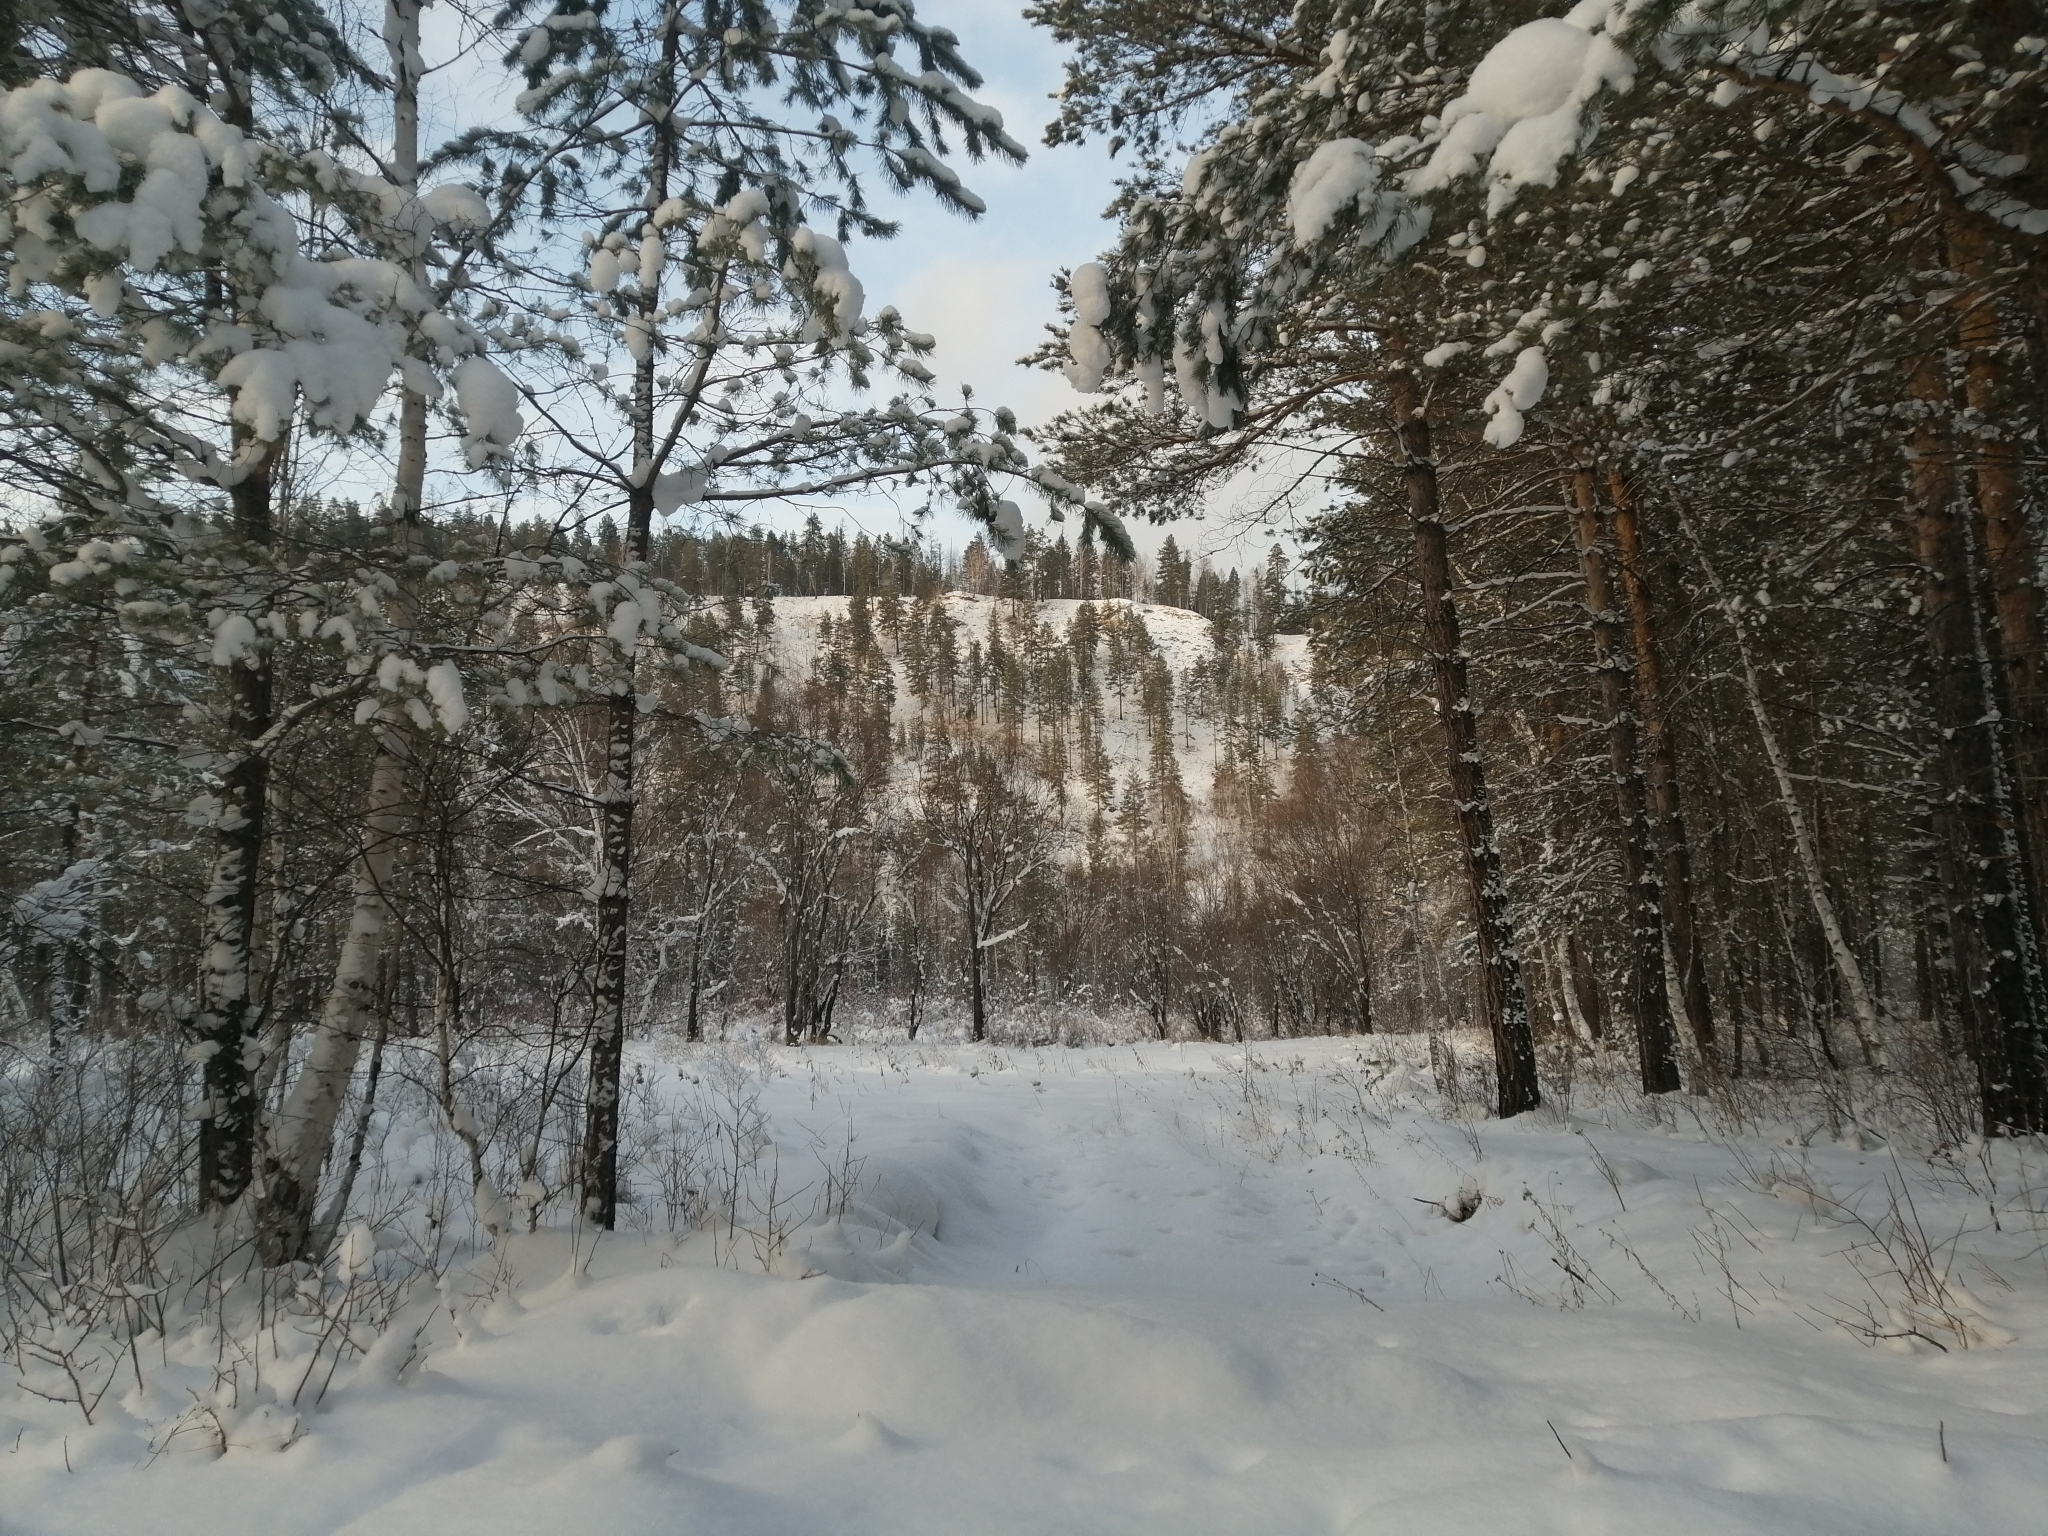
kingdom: Plantae
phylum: Tracheophyta
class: Pinopsida
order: Pinales
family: Pinaceae
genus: Pinus
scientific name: Pinus sylvestris
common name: Scots pine
